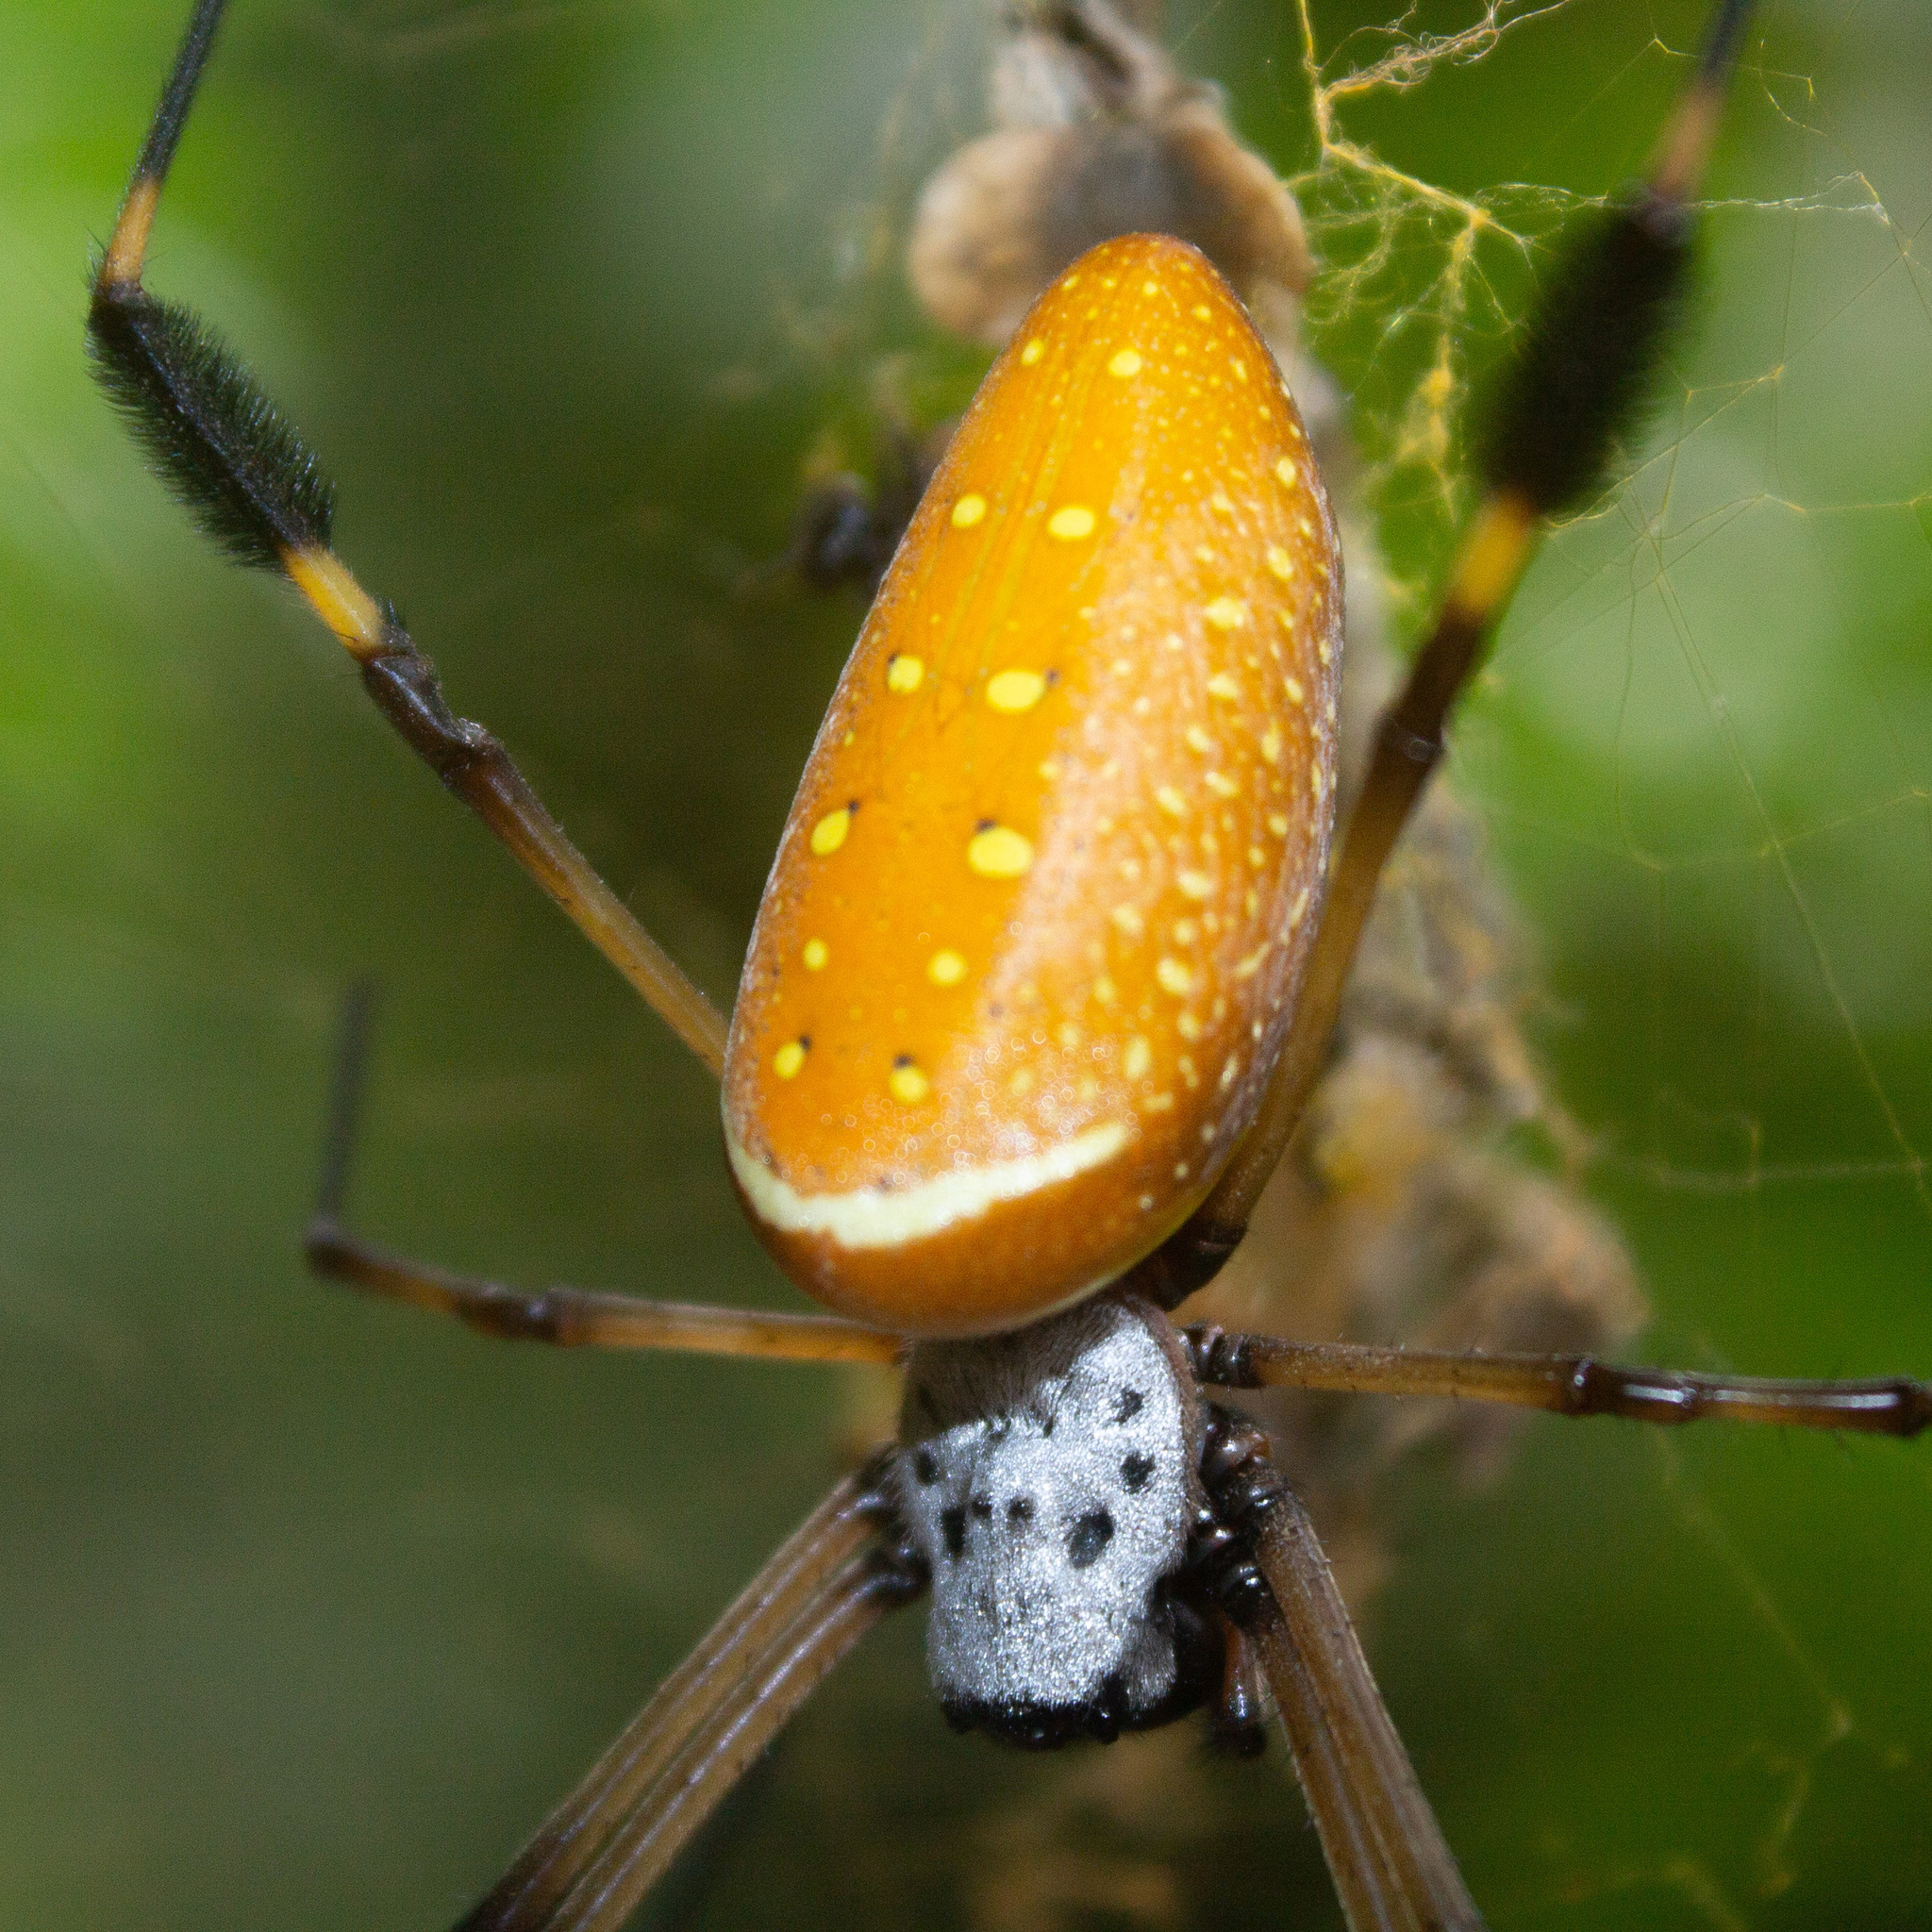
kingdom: Animalia
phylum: Arthropoda
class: Arachnida
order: Araneae
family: Araneidae
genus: Trichonephila
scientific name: Trichonephila clavipes
